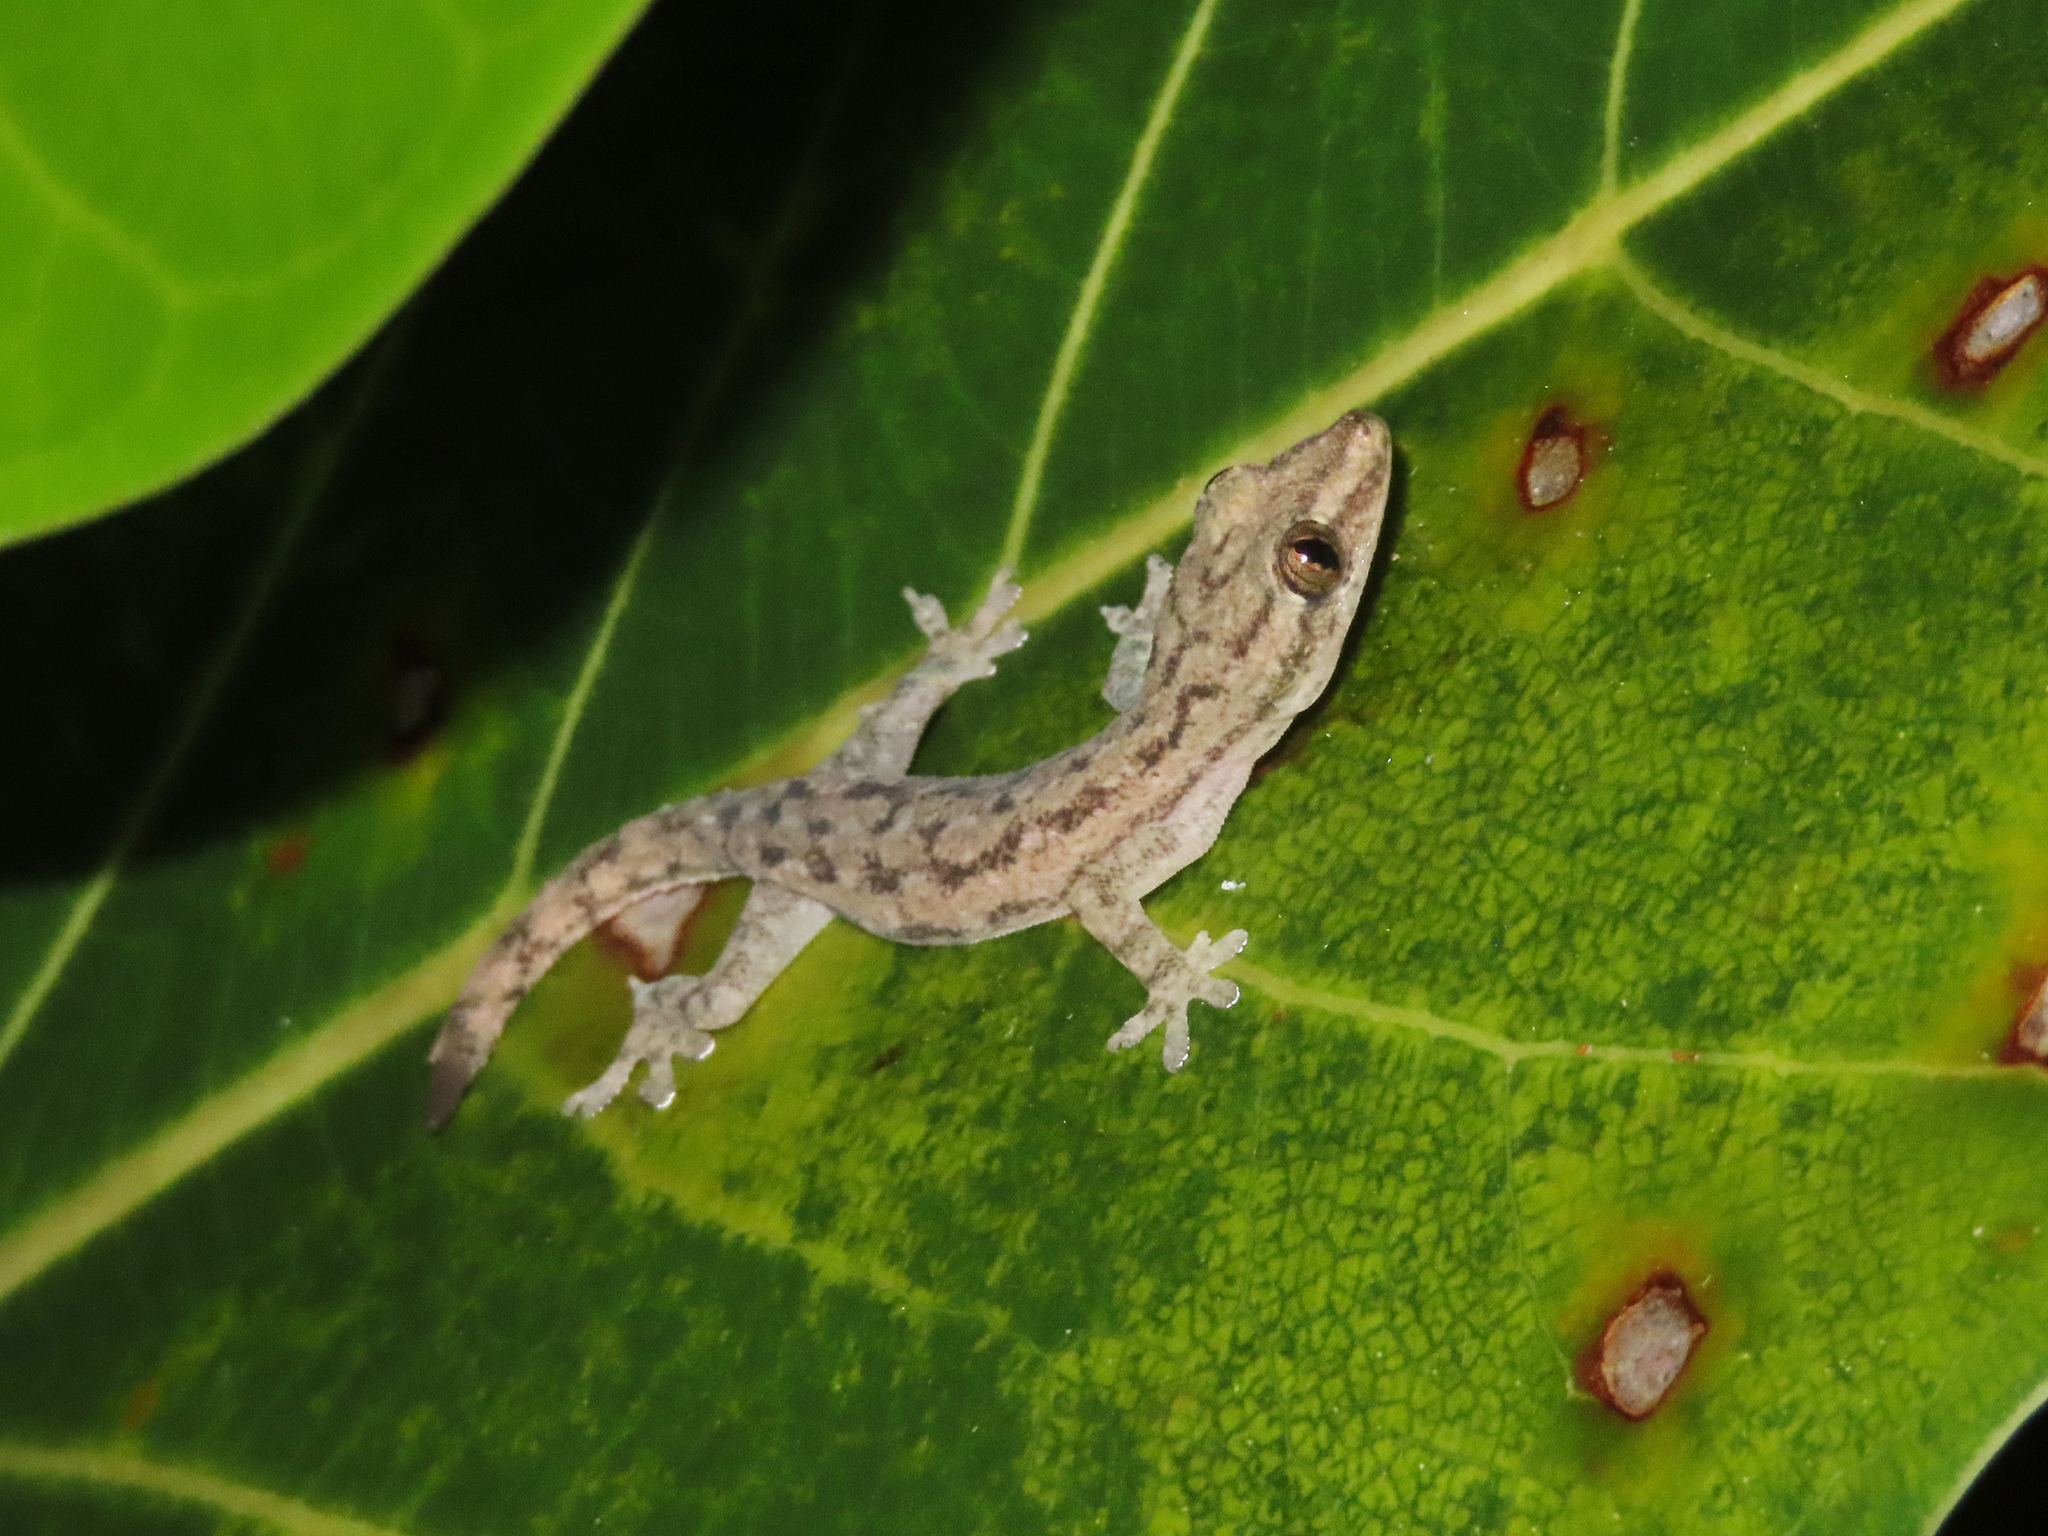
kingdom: Animalia
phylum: Chordata
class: Squamata
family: Gekkonidae
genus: Hemidactylus
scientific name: Hemidactylus frenatus
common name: Common house gecko
